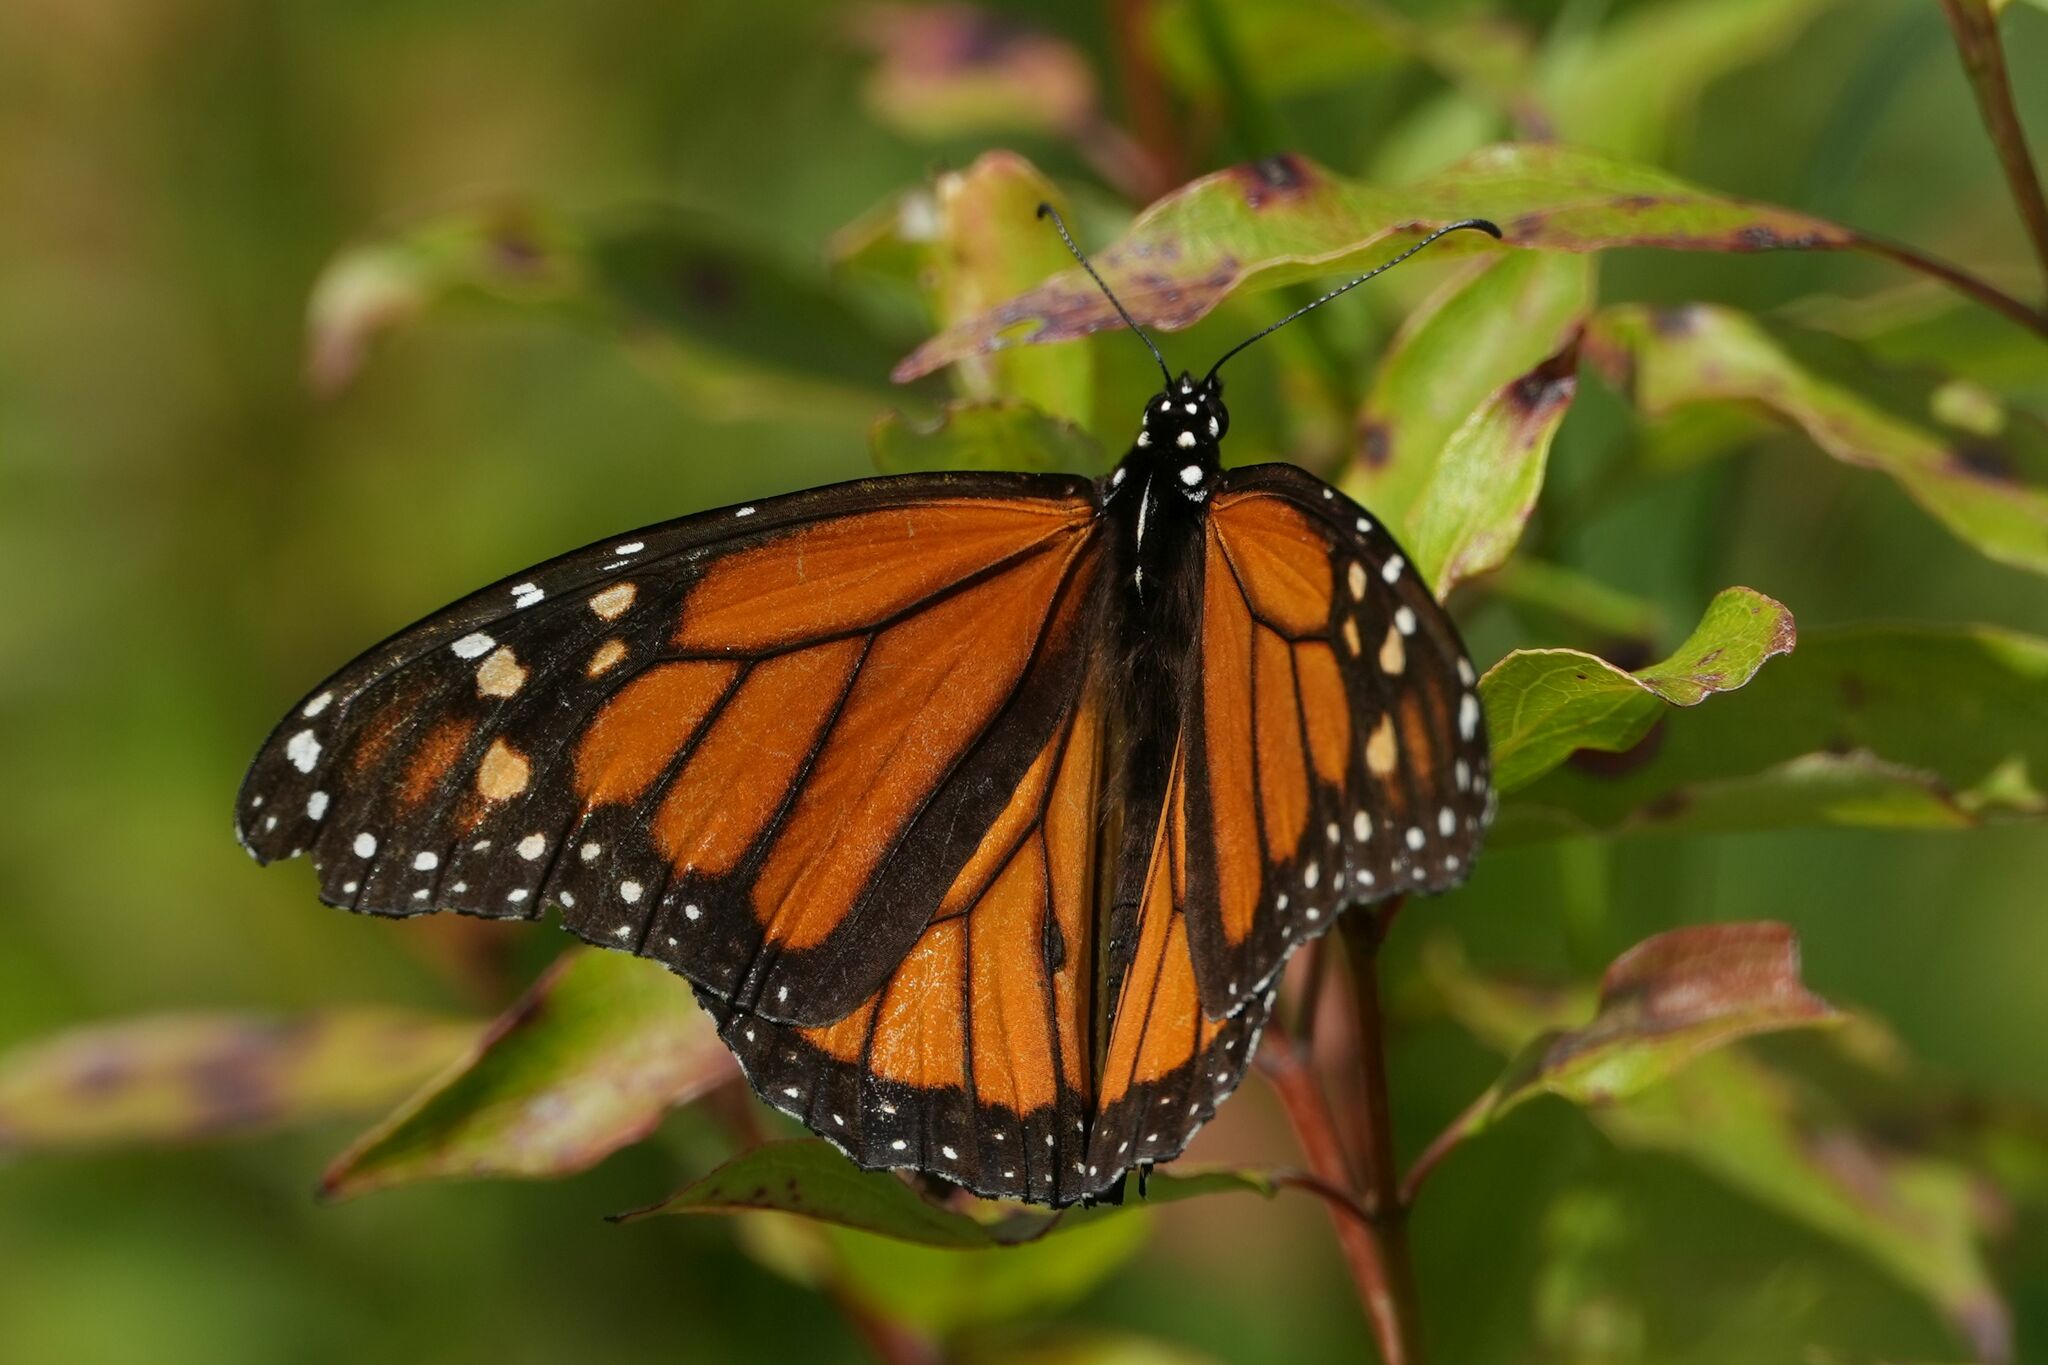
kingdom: Animalia
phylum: Arthropoda
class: Insecta
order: Lepidoptera
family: Nymphalidae
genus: Danaus
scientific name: Danaus plexippus
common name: Monarch
